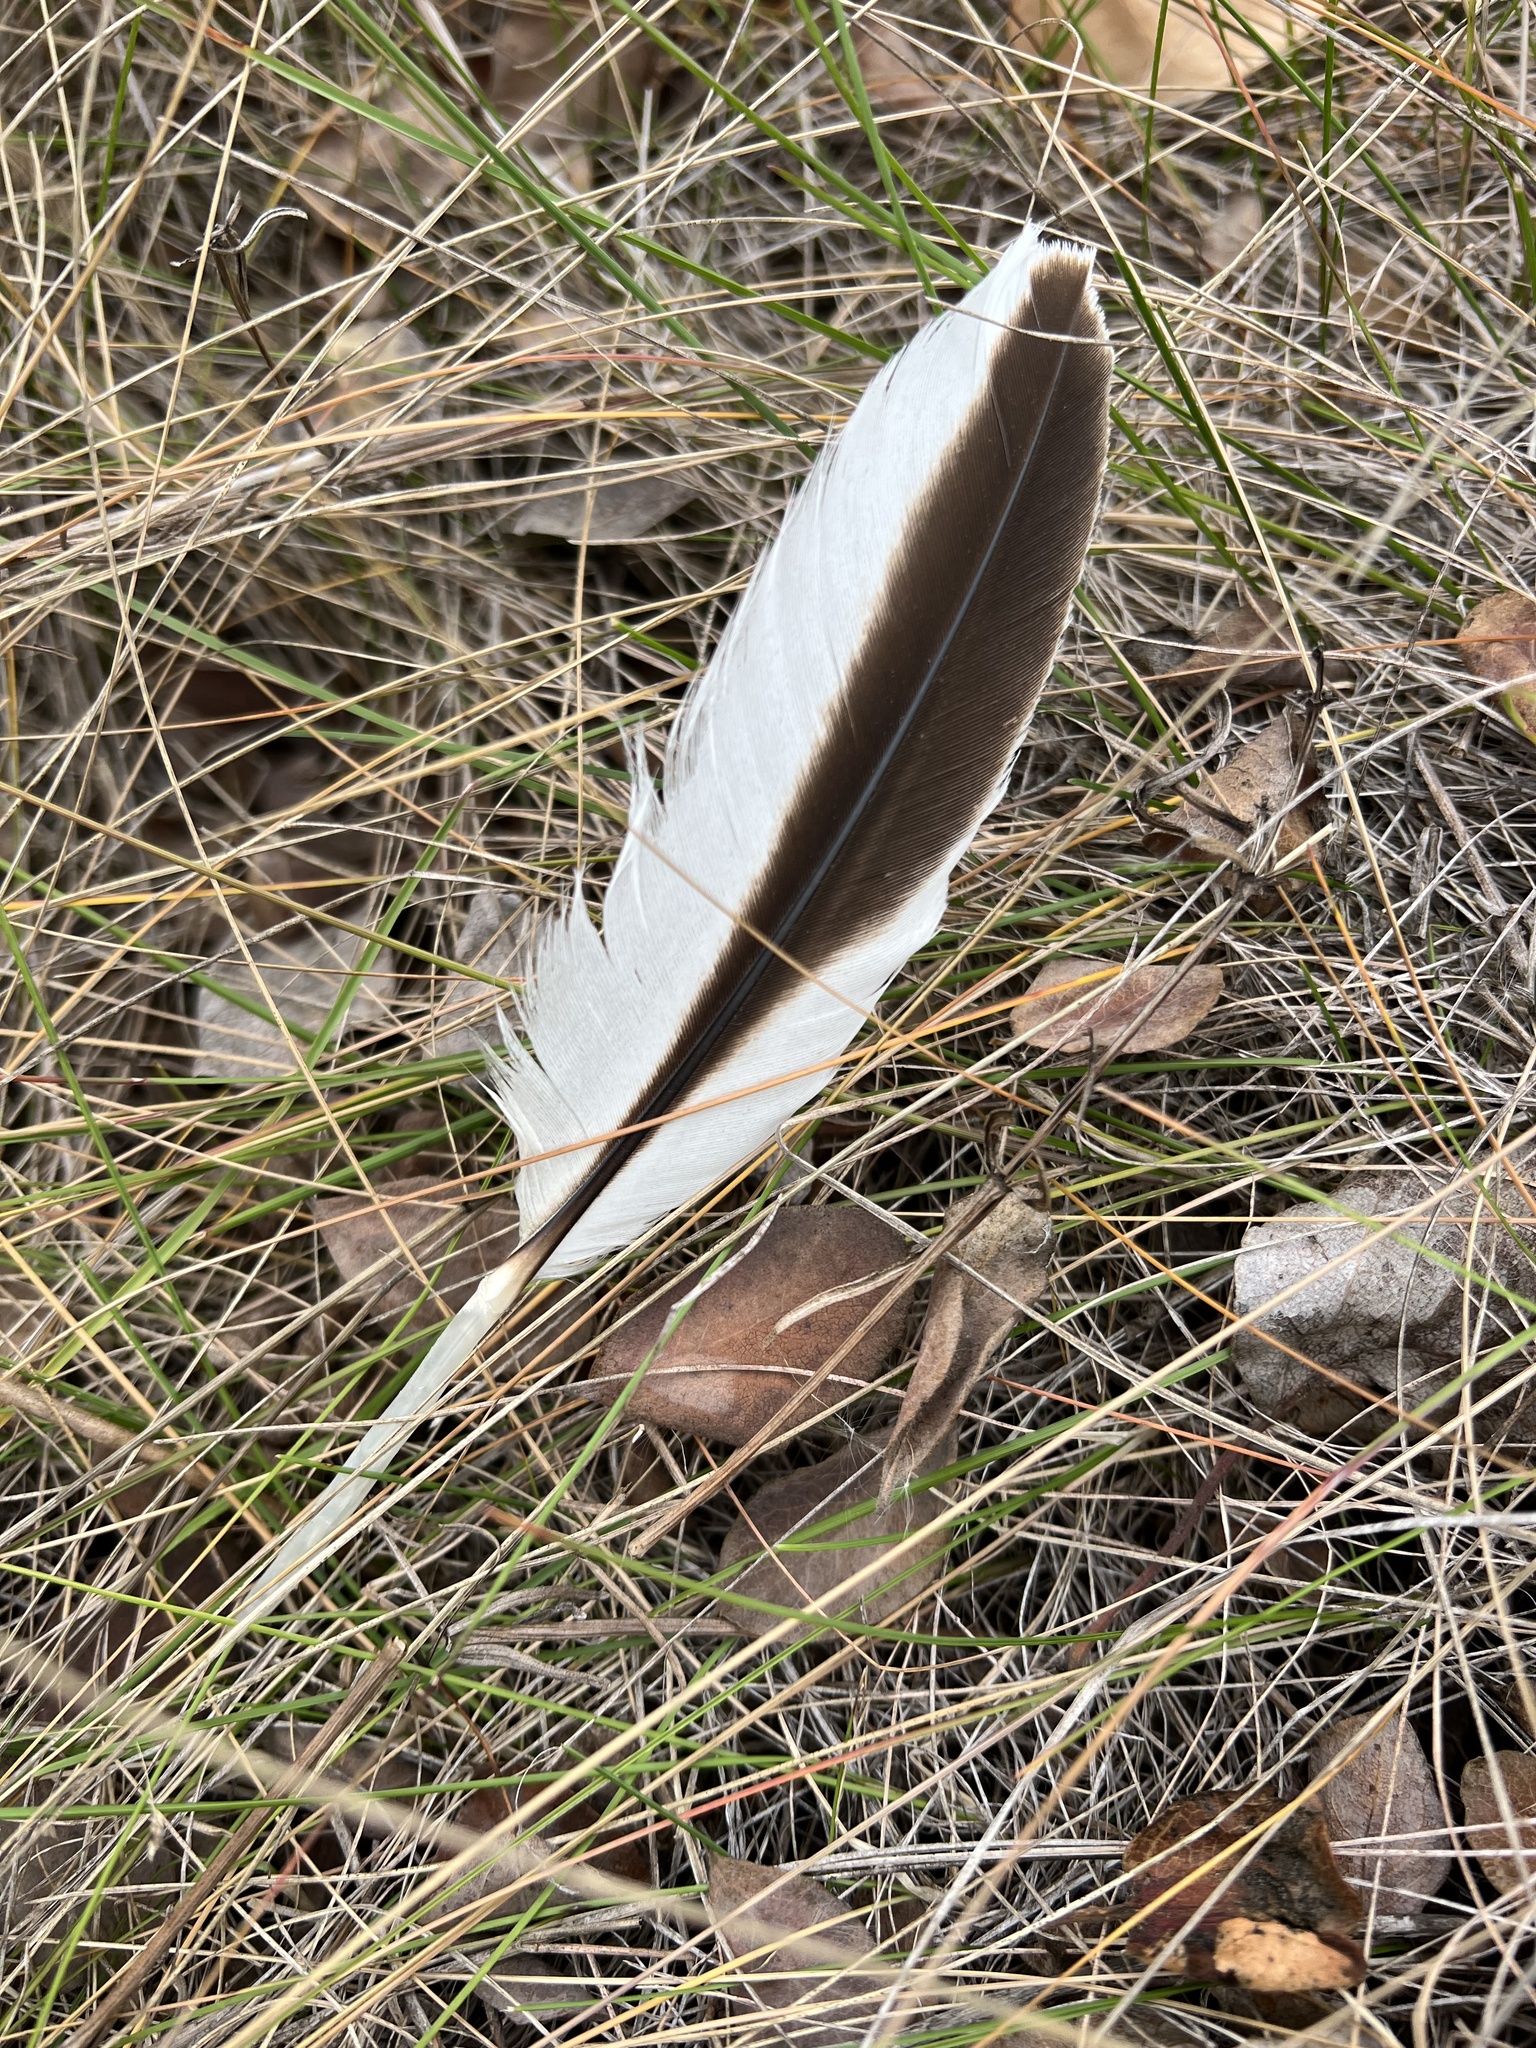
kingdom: Animalia
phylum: Chordata
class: Aves
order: Pelecaniformes
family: Pelecanidae
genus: Pelecanus
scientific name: Pelecanus erythrorhynchos
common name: American white pelican
